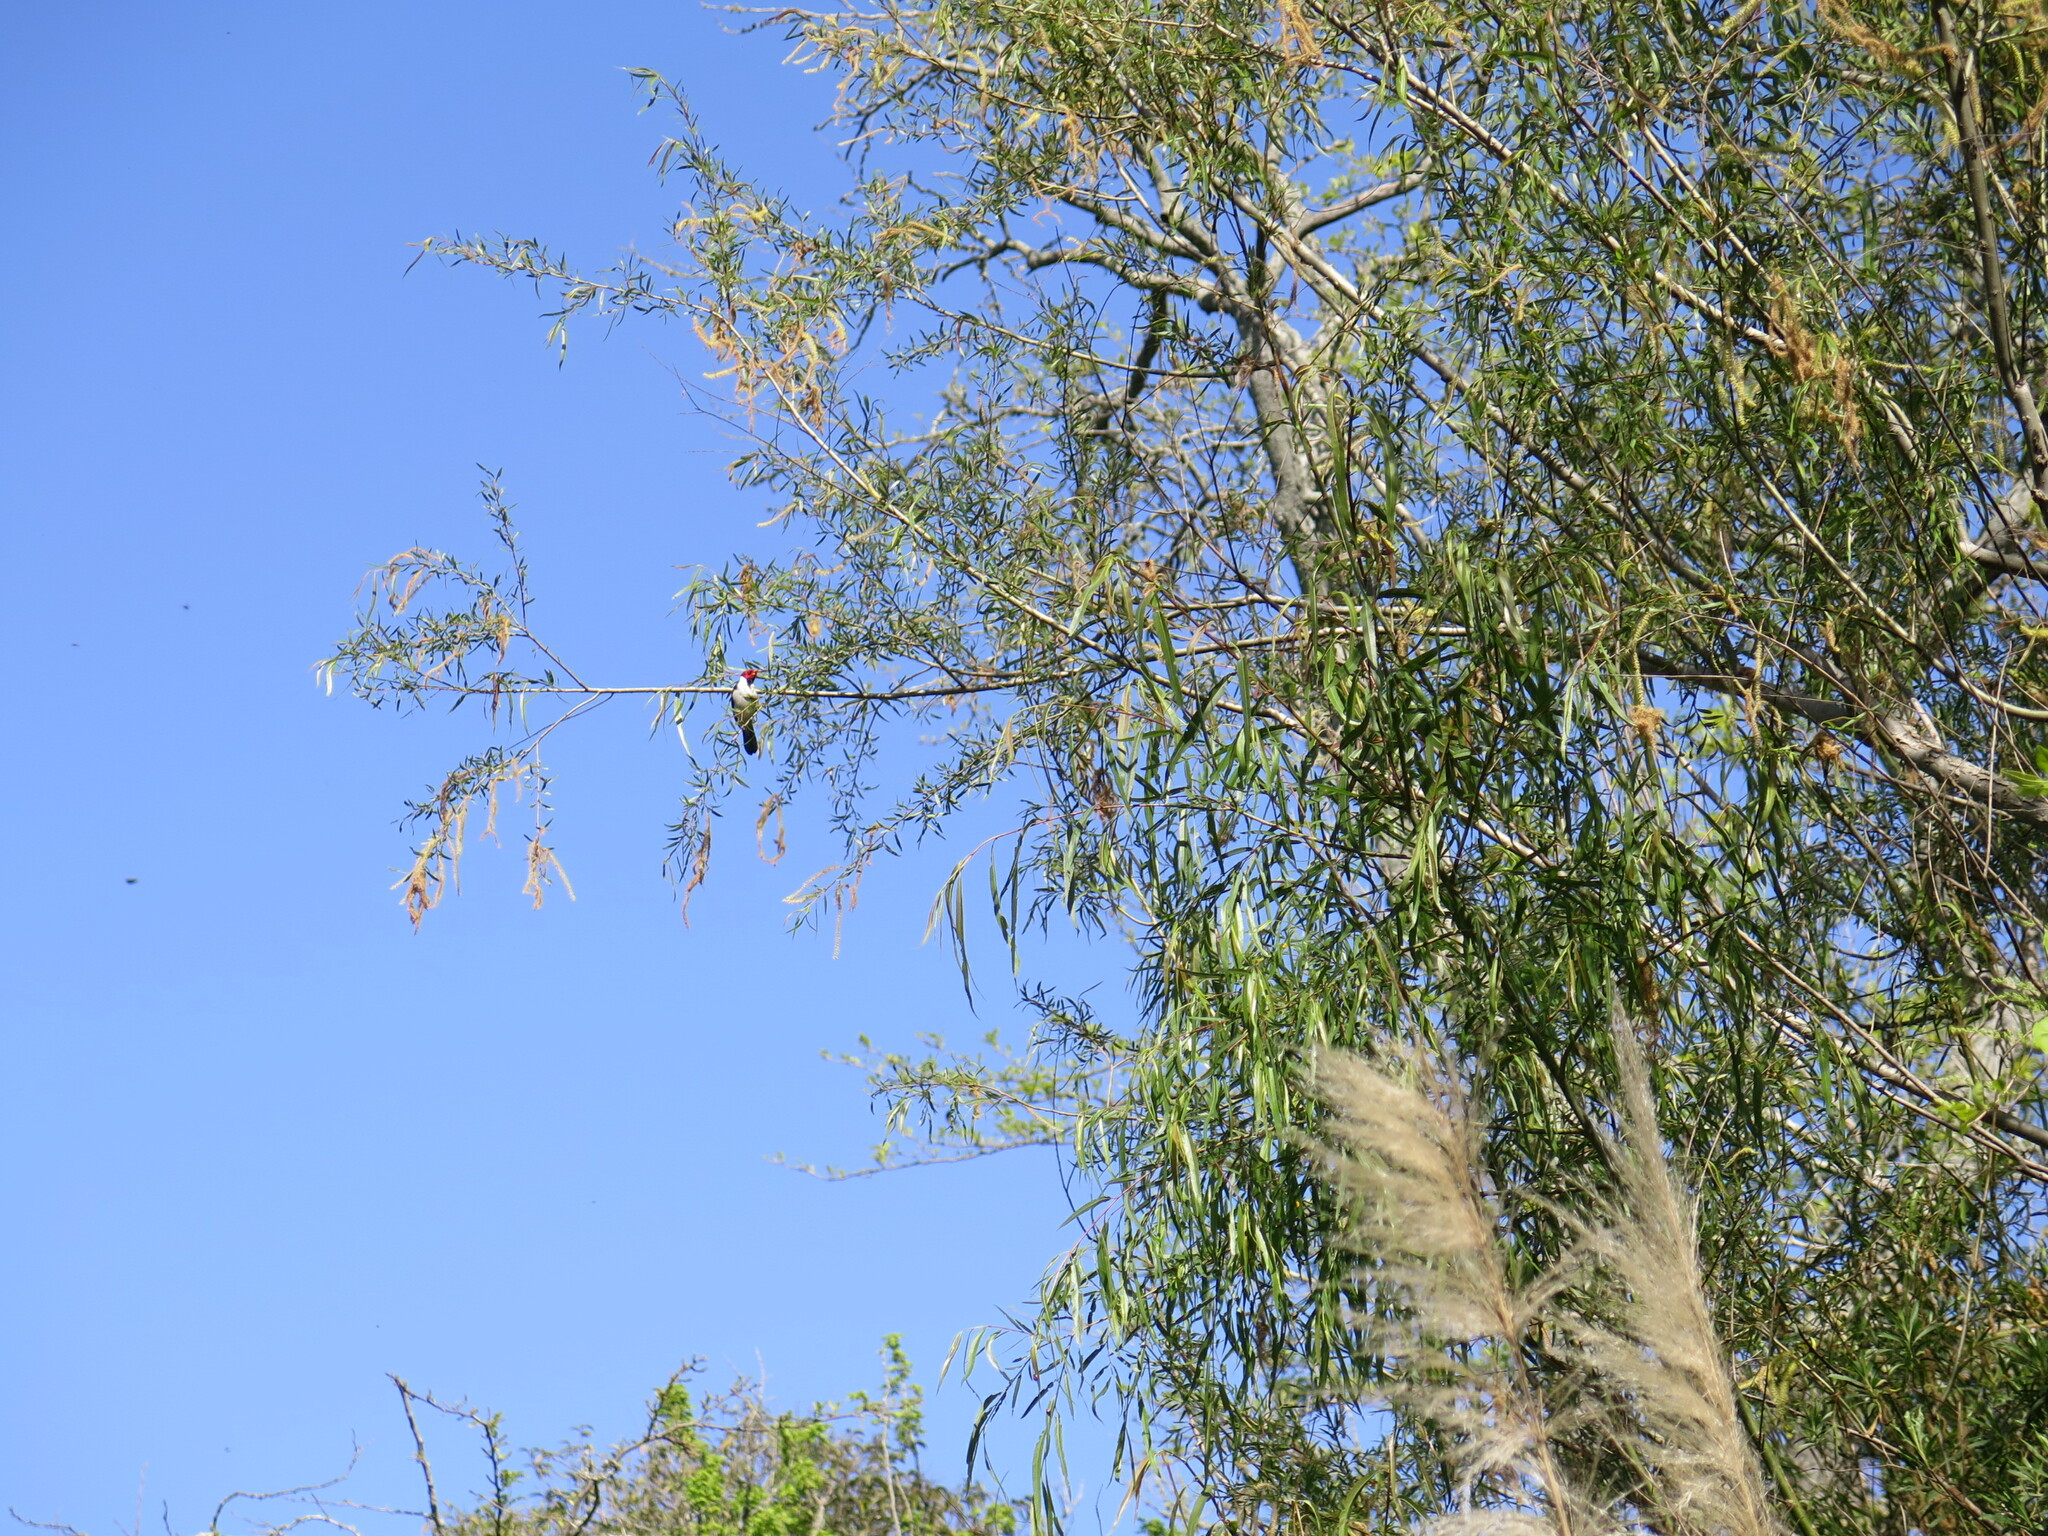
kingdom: Animalia
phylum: Chordata
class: Aves
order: Passeriformes
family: Thraupidae
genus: Paroaria
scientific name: Paroaria capitata
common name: Yellow-billed cardinal
